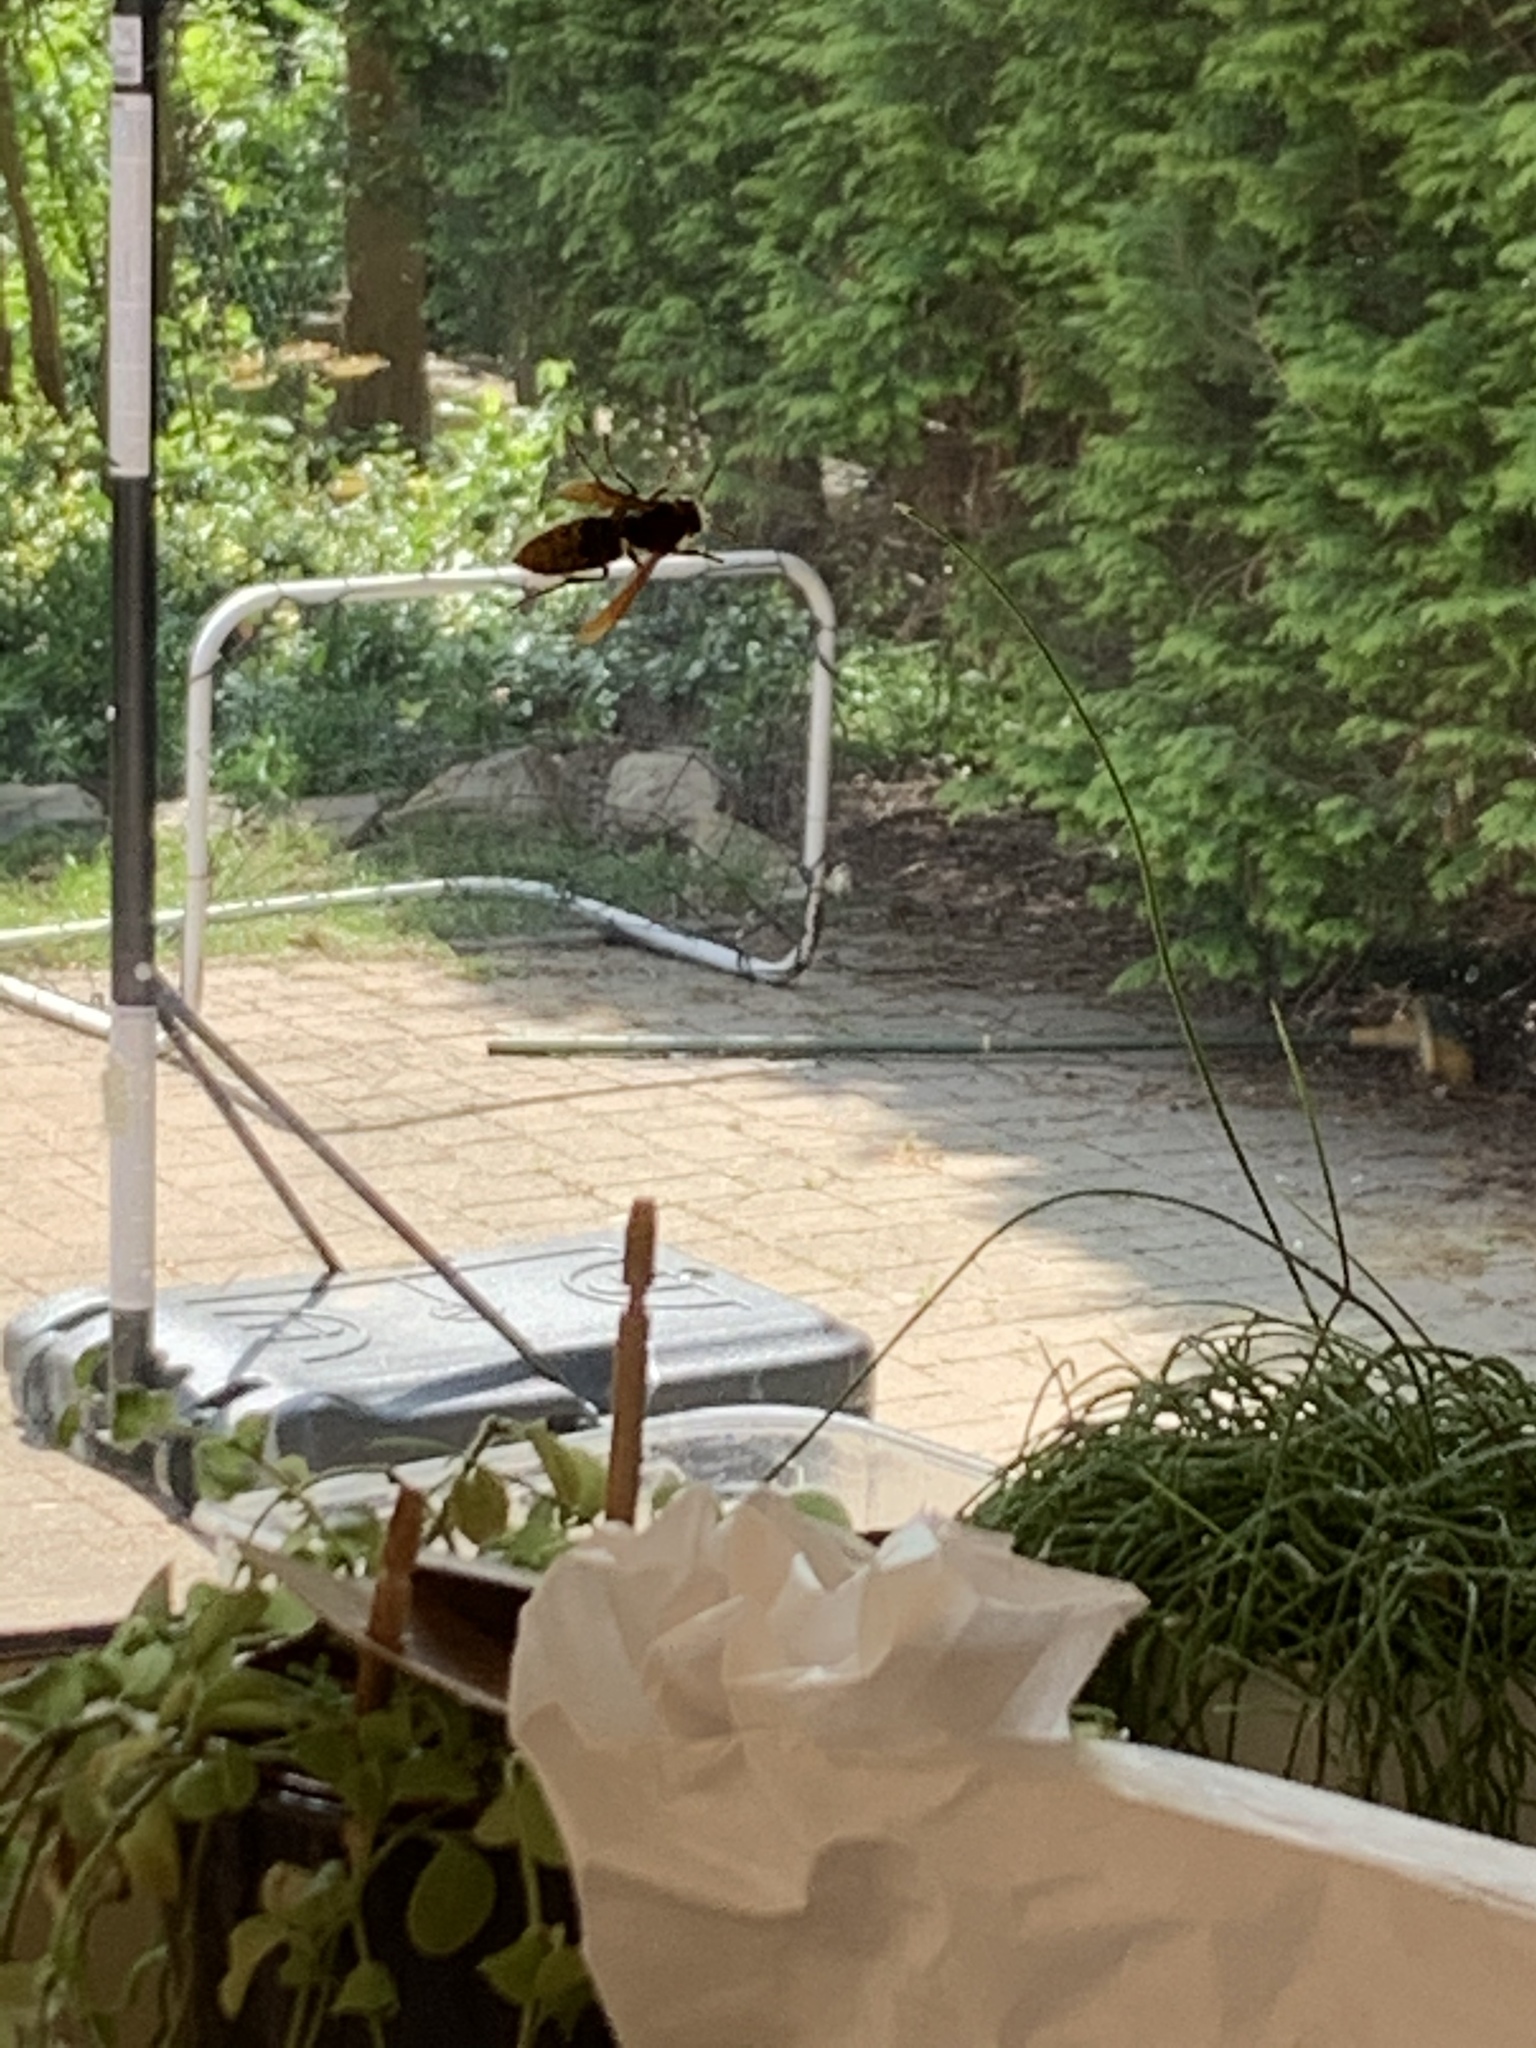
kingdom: Animalia
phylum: Arthropoda
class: Insecta
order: Hymenoptera
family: Vespidae
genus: Vespa
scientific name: Vespa crabro
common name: Hornet
